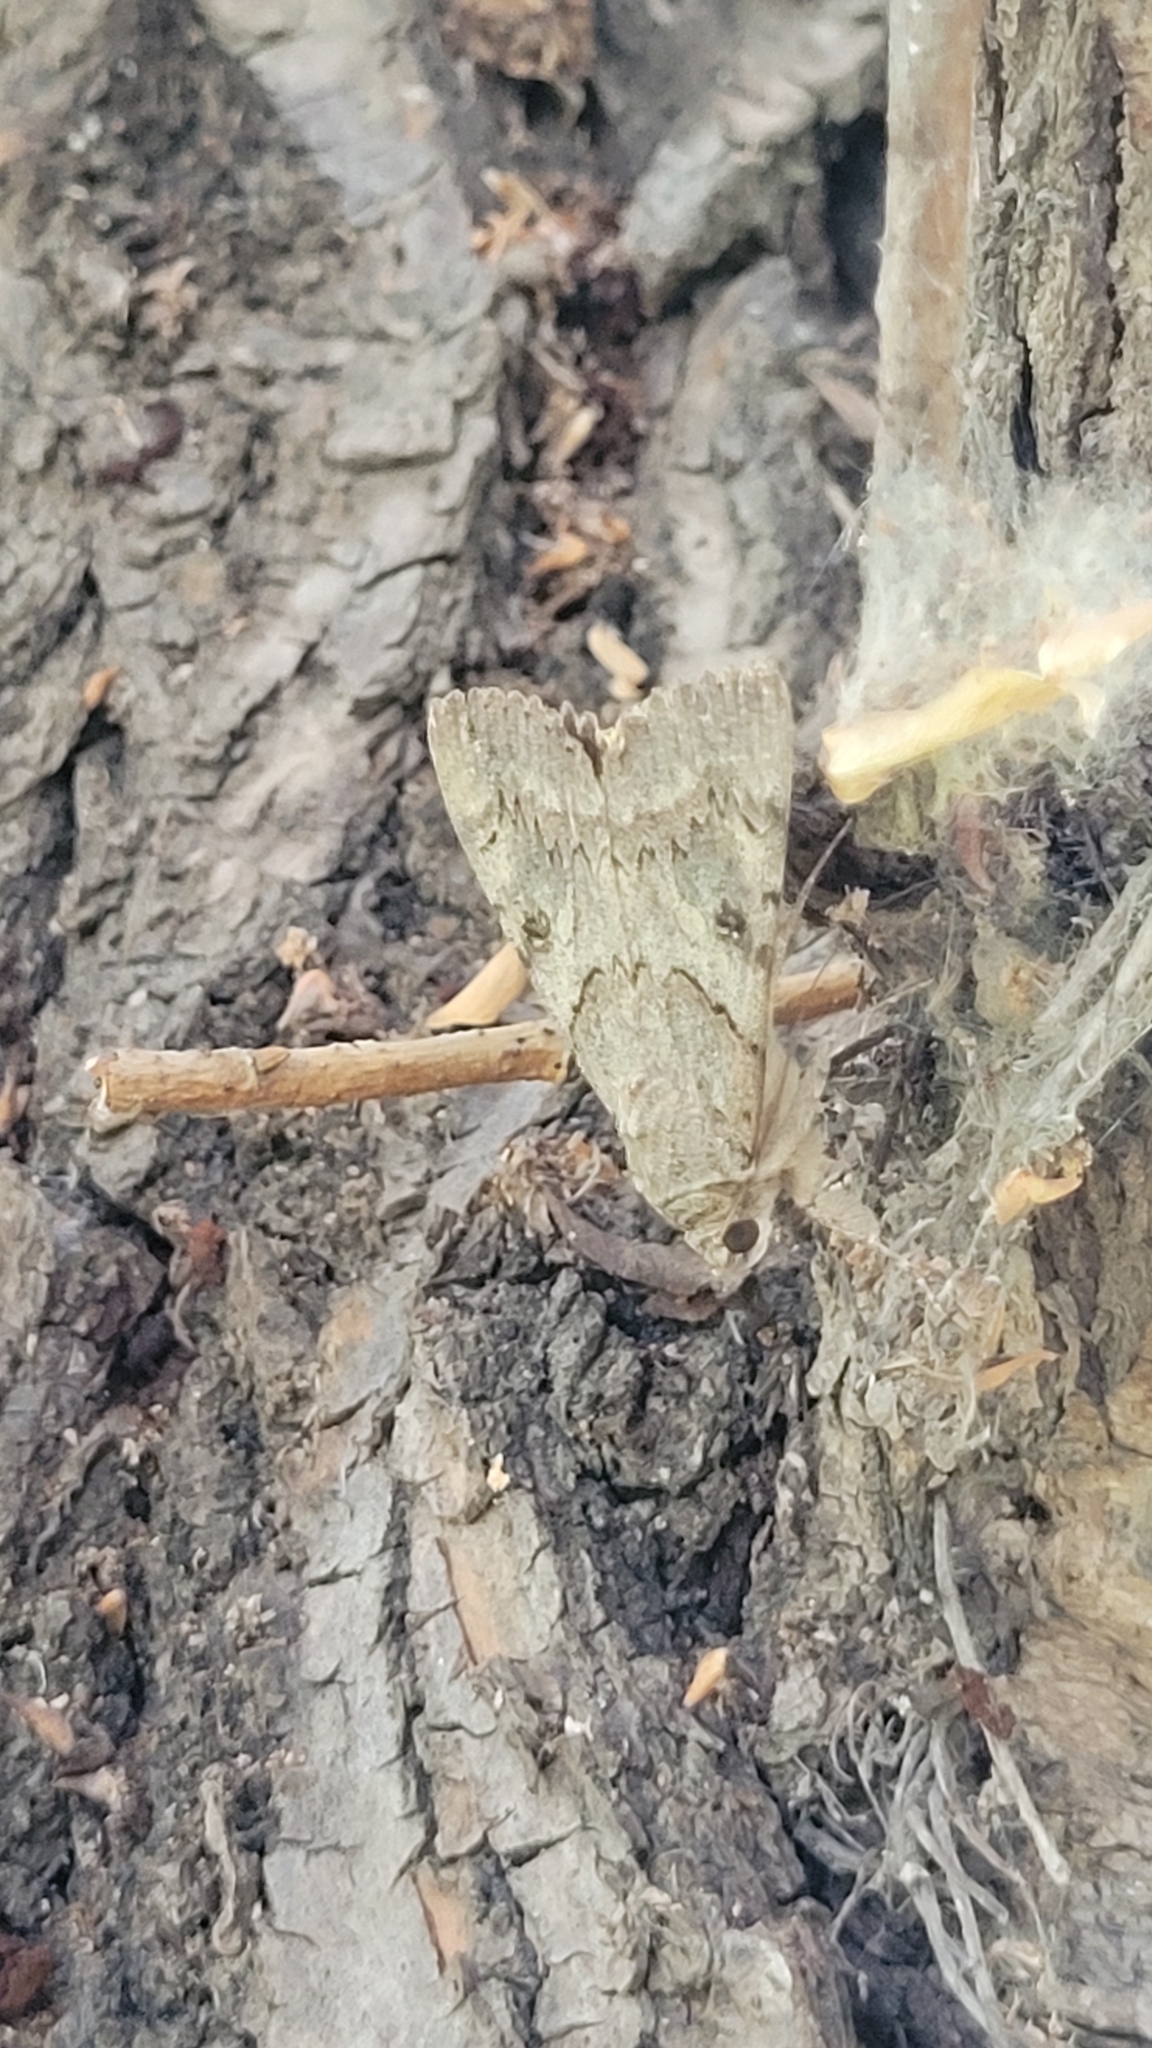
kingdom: Animalia
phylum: Arthropoda
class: Insecta
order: Lepidoptera
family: Erebidae
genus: Catocala
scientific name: Catocala neonympha
